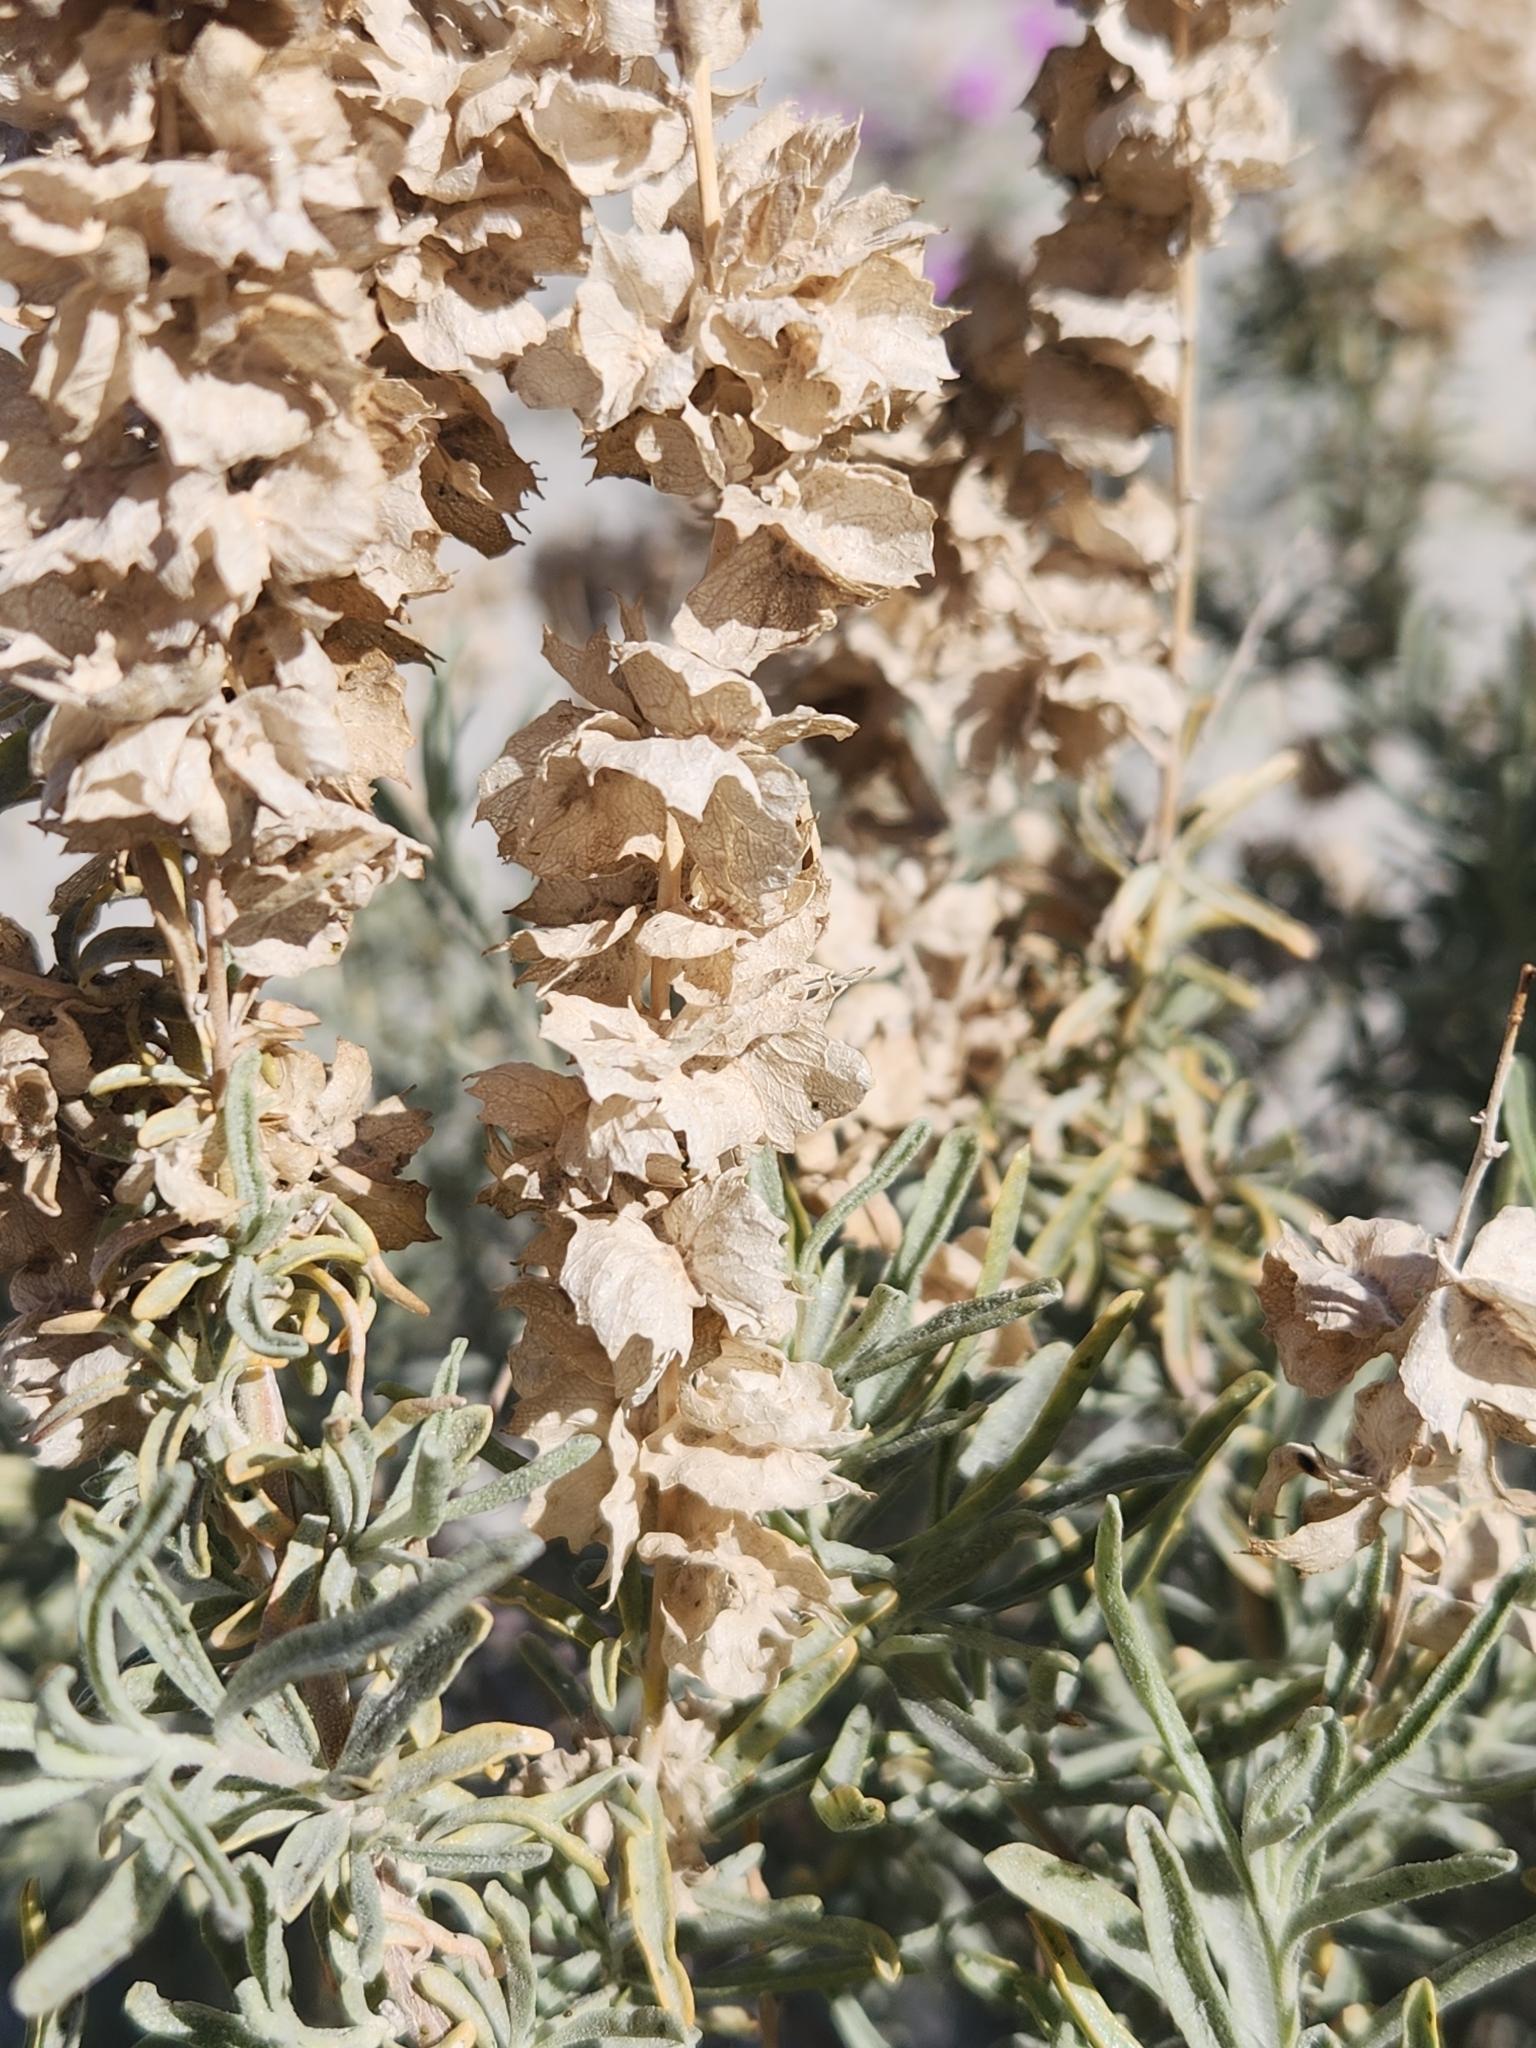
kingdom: Plantae
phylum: Tracheophyta
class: Magnoliopsida
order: Caryophyllales
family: Amaranthaceae
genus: Atriplex
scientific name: Atriplex canescens
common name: Four-wing saltbush
